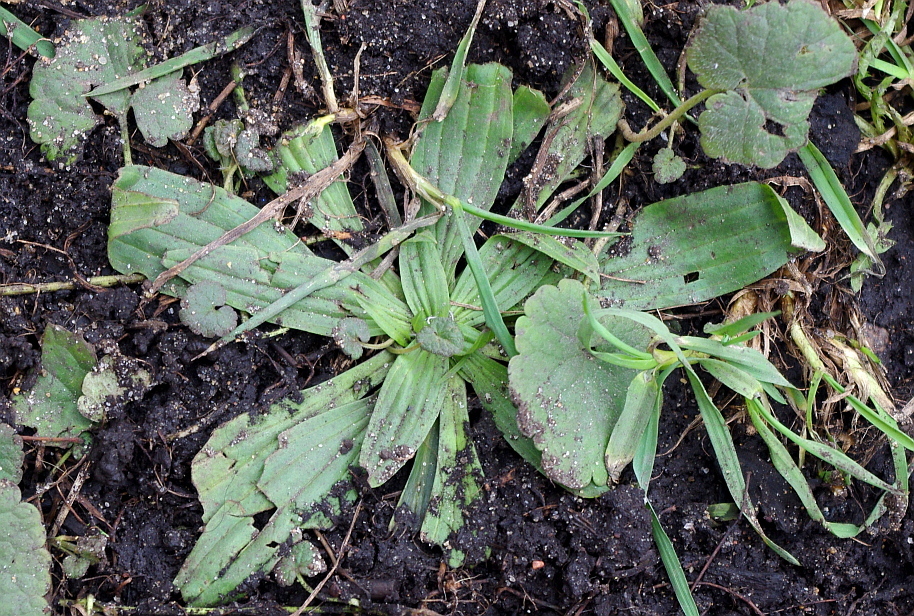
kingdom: Plantae
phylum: Tracheophyta
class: Magnoliopsida
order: Lamiales
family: Plantaginaceae
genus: Plantago
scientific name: Plantago lanceolata
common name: Ribwort plantain
